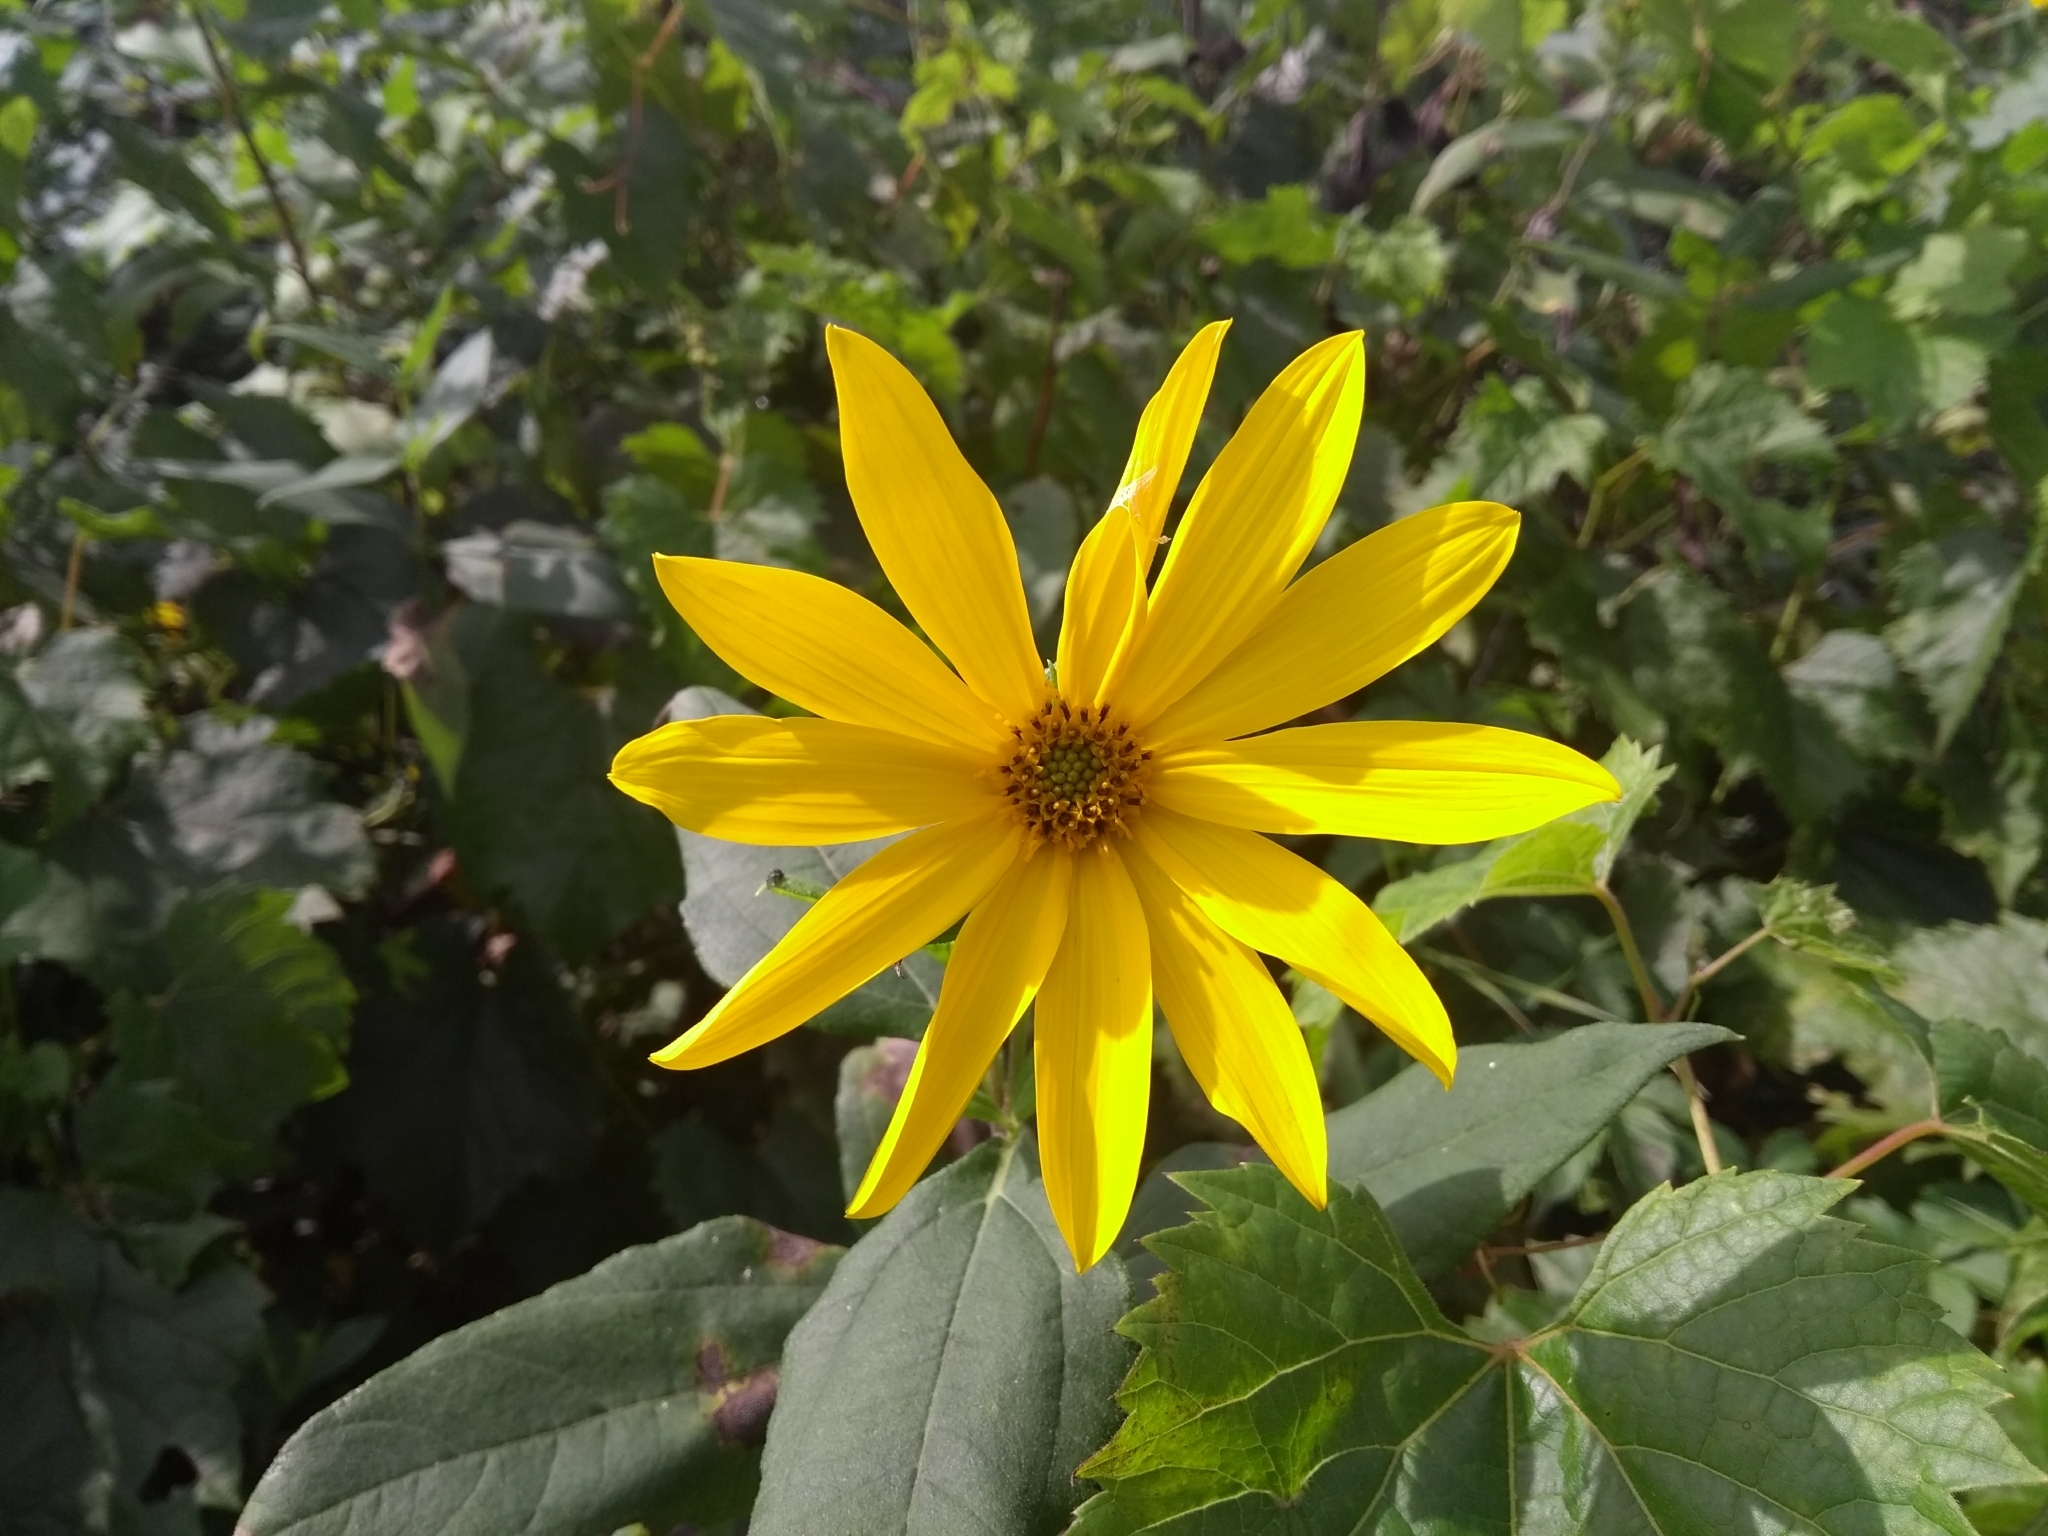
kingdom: Plantae
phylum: Tracheophyta
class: Magnoliopsida
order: Asterales
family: Asteraceae
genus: Heliopsis
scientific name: Heliopsis helianthoides
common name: False sunflower
